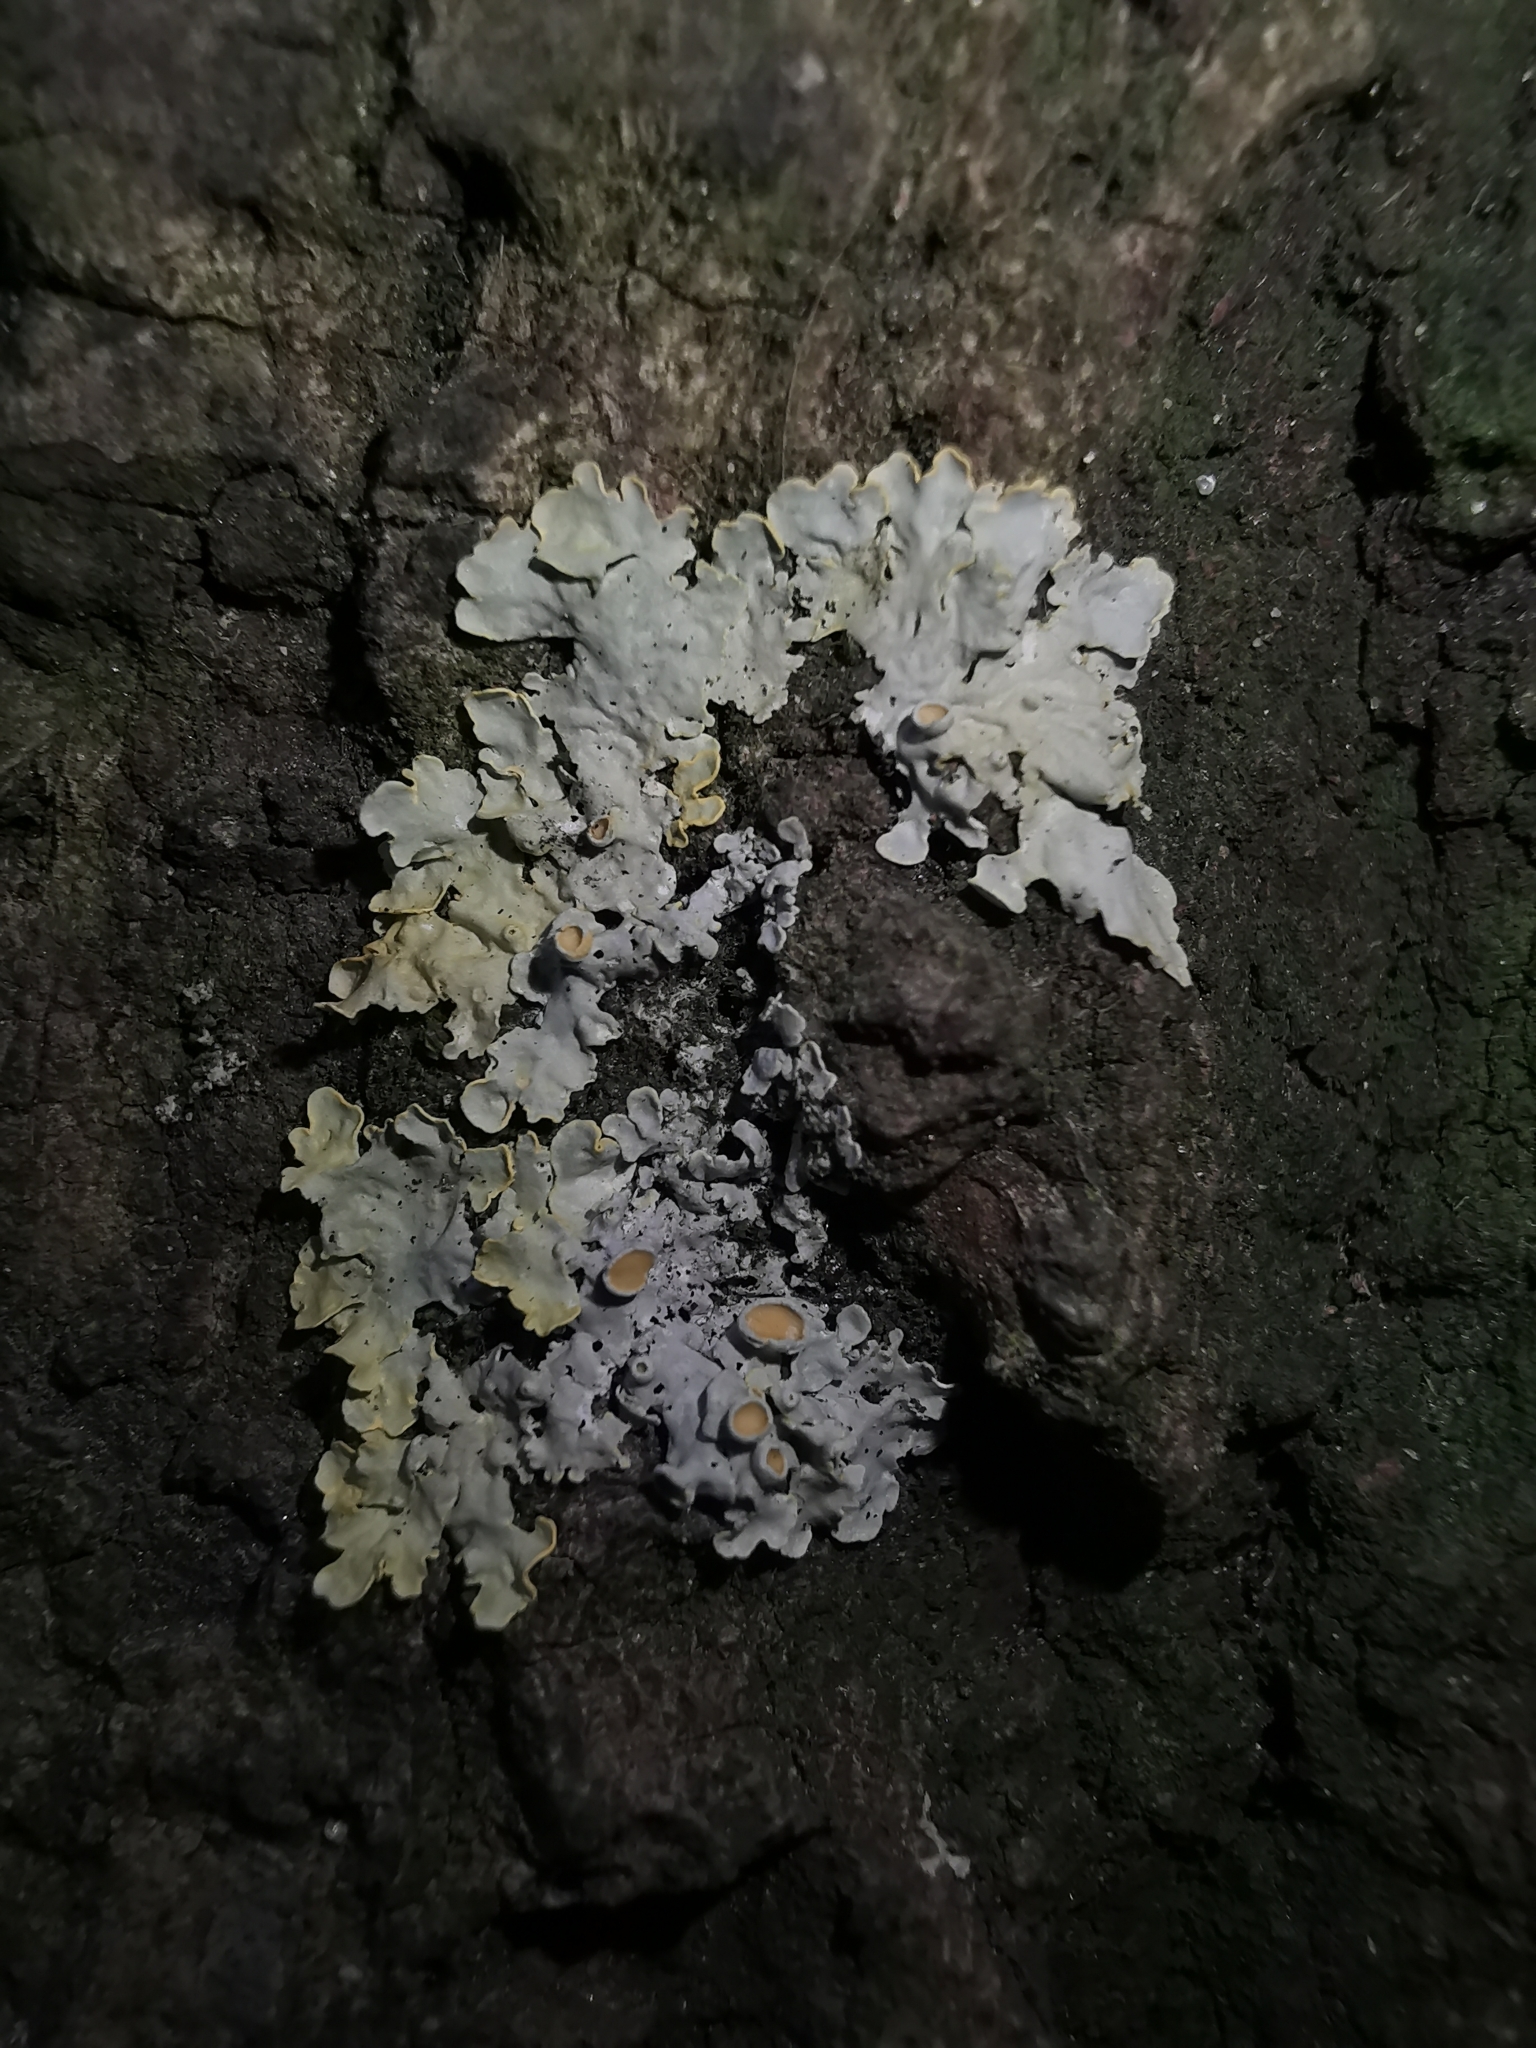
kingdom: Fungi
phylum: Ascomycota
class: Lecanoromycetes
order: Teloschistales
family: Teloschistaceae
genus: Xanthoria
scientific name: Xanthoria parietina
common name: Common orange lichen
